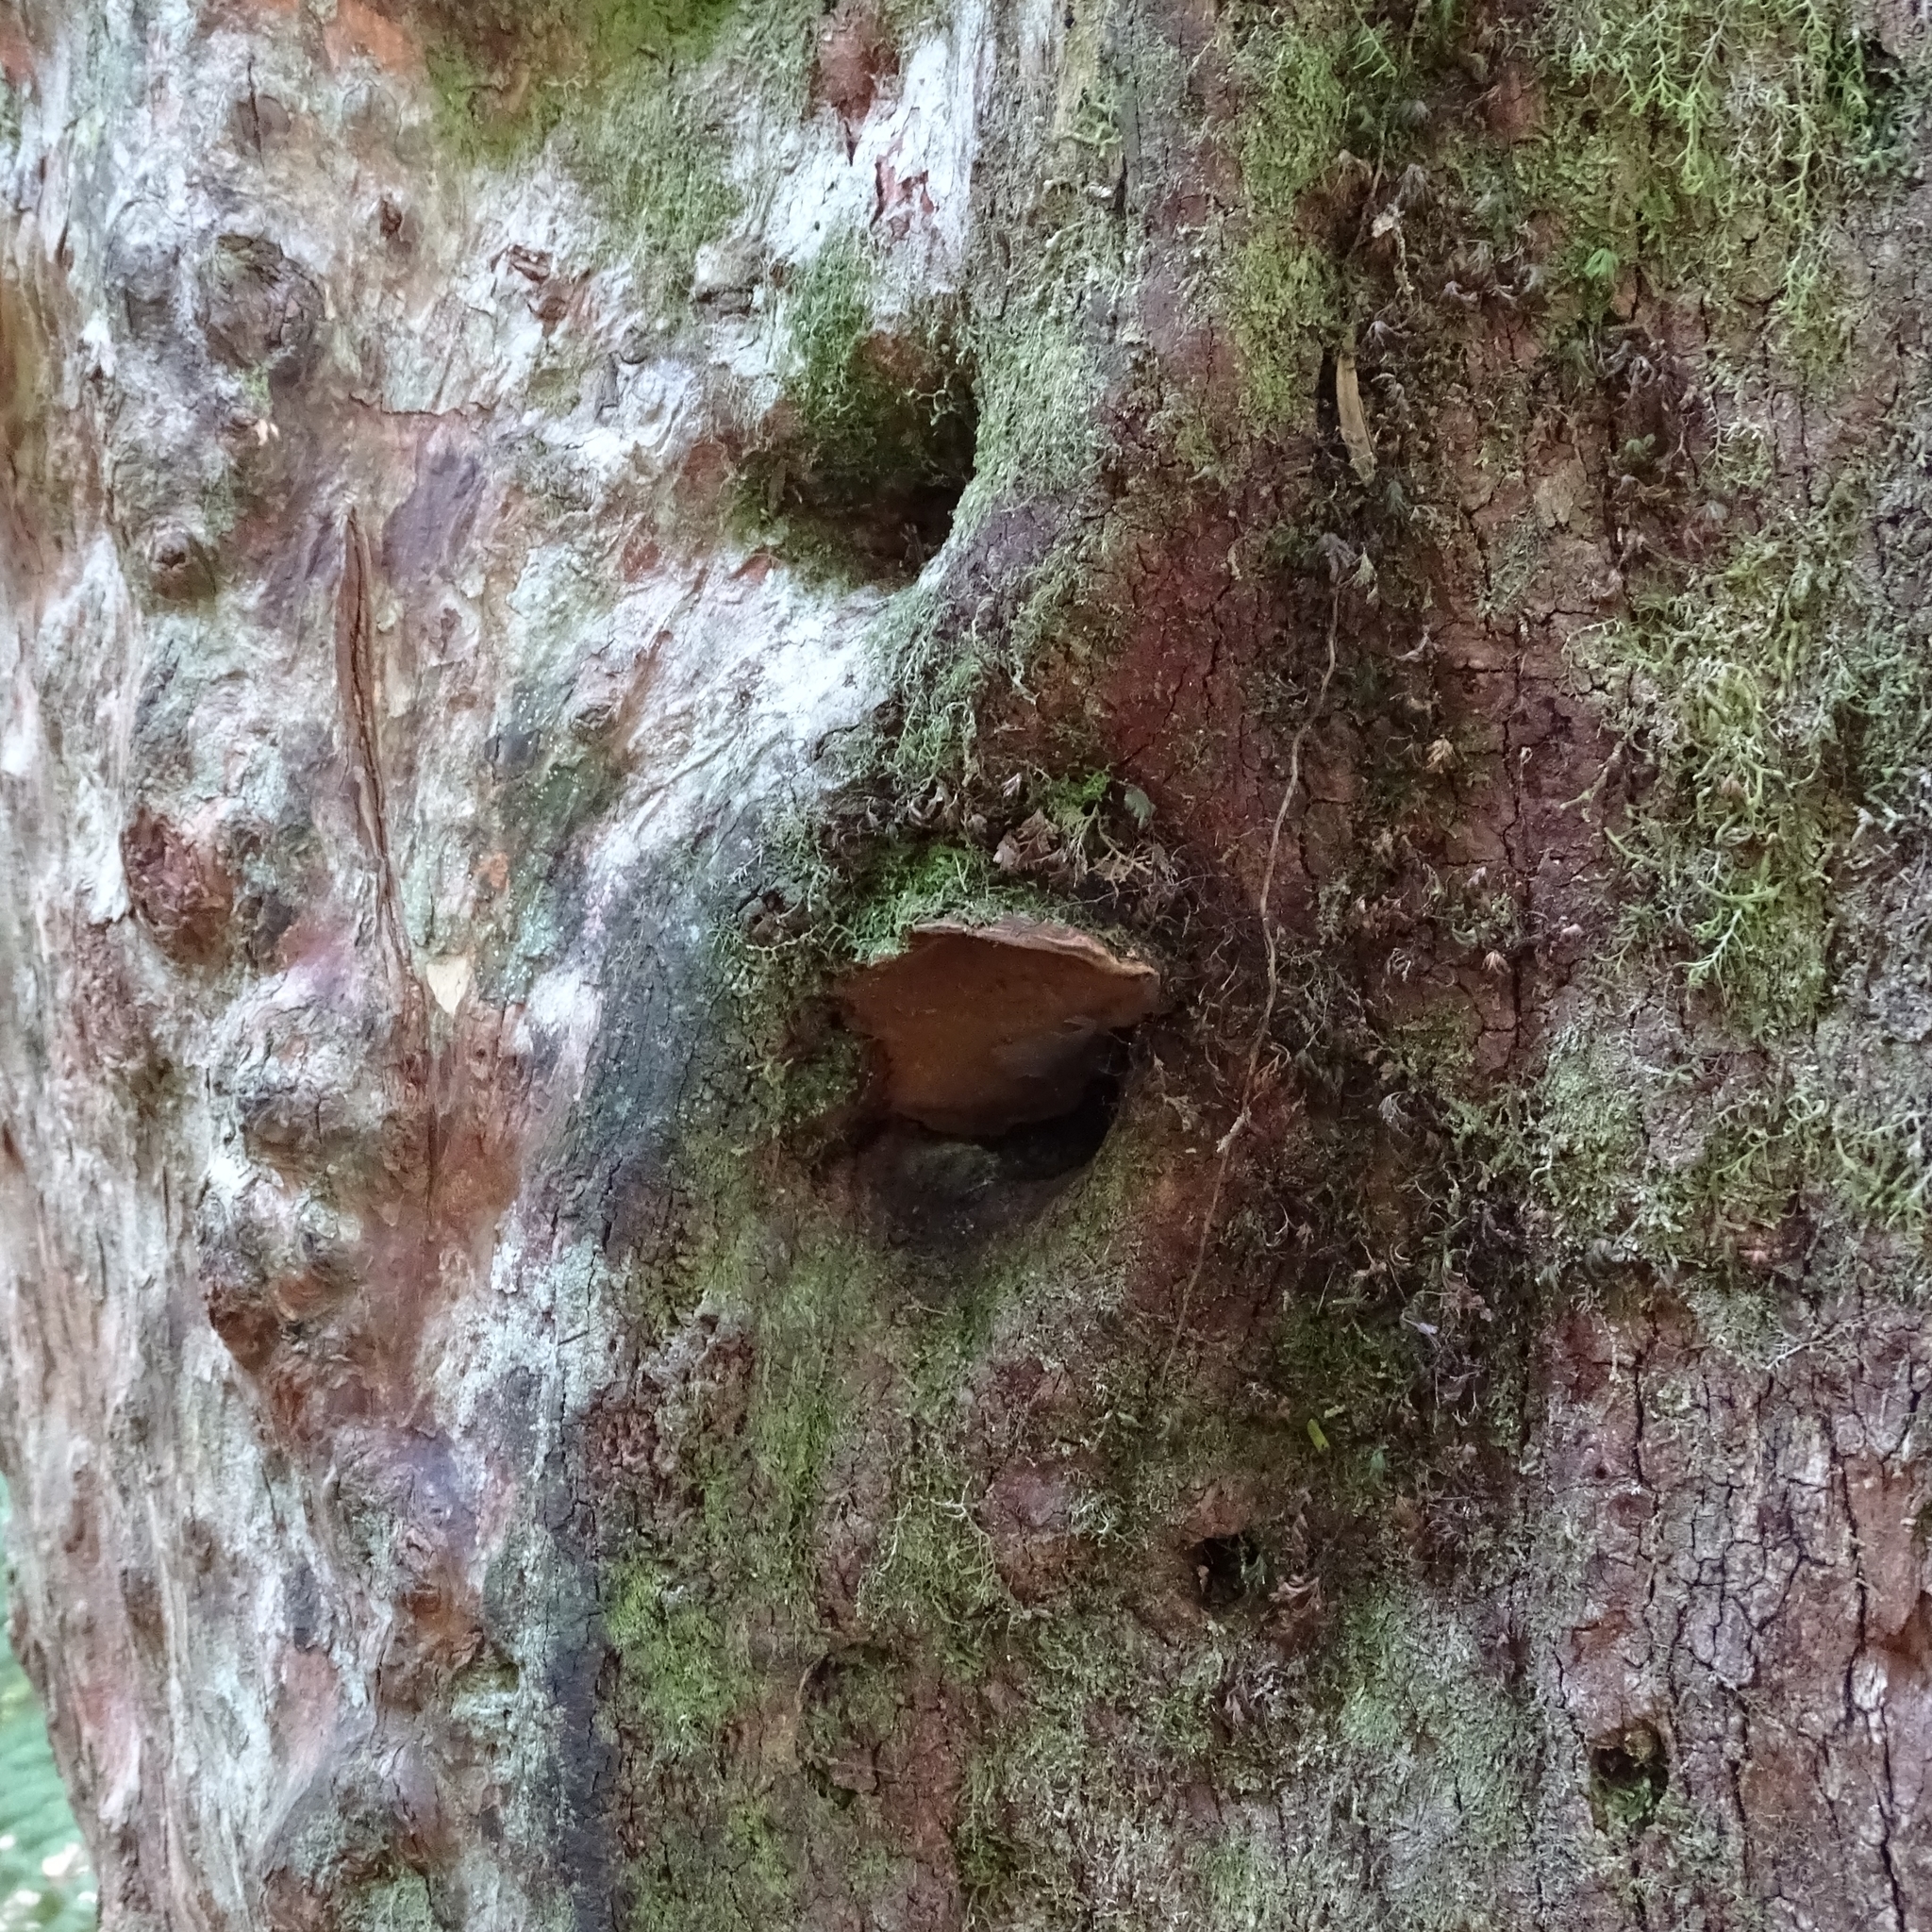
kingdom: Fungi
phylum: Basidiomycota
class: Agaricomycetes
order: Hymenochaetales
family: Hymenochaetaceae
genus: Fuscoporia
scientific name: Fuscoporia senex
